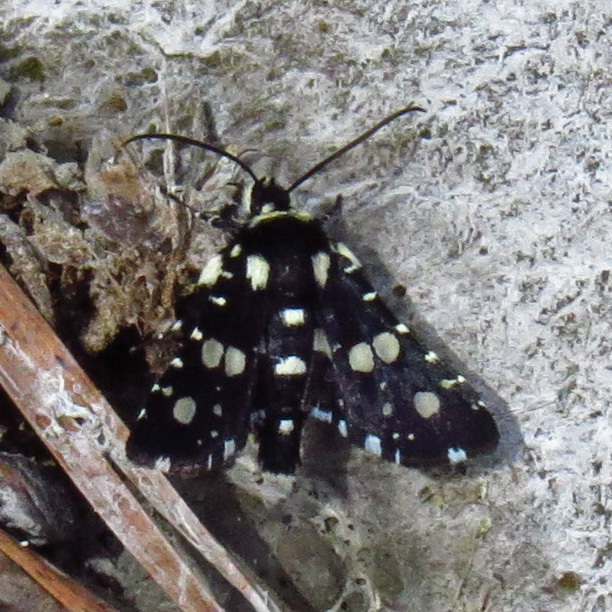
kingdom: Animalia
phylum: Arthropoda
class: Insecta
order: Lepidoptera
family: Thyrididae
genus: Pseudothyris
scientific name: Pseudothyris sepulchralis
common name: Mournful thyris moth
